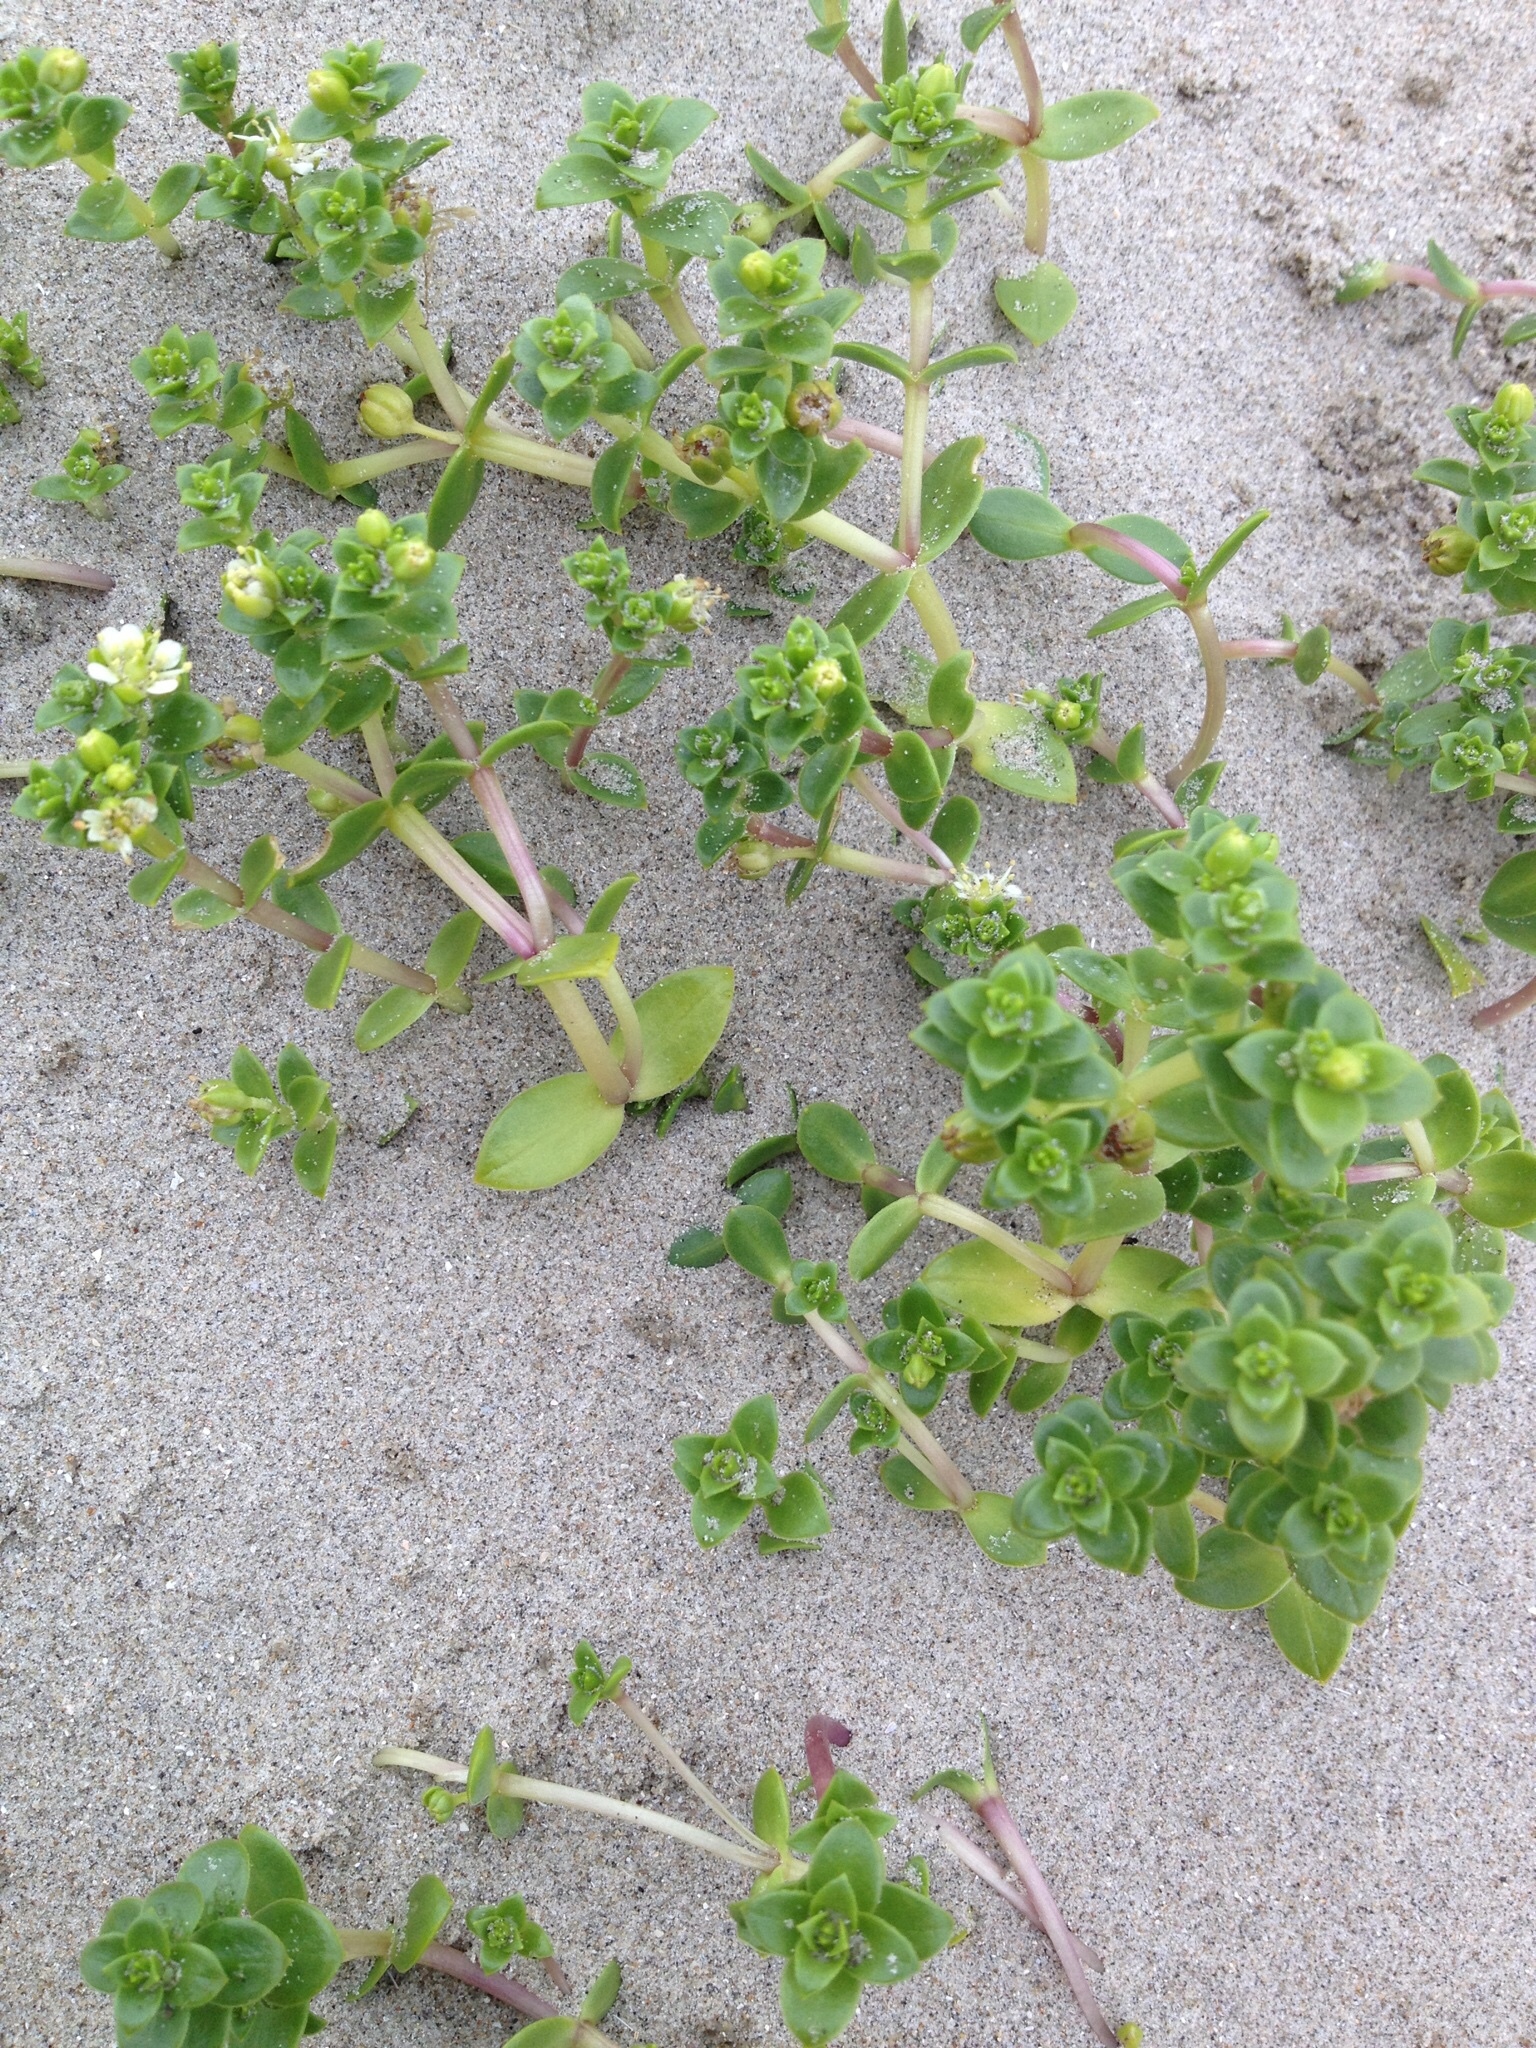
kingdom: Plantae
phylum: Tracheophyta
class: Magnoliopsida
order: Caryophyllales
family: Caryophyllaceae
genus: Honckenya
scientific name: Honckenya peploides
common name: Sea sandwort
